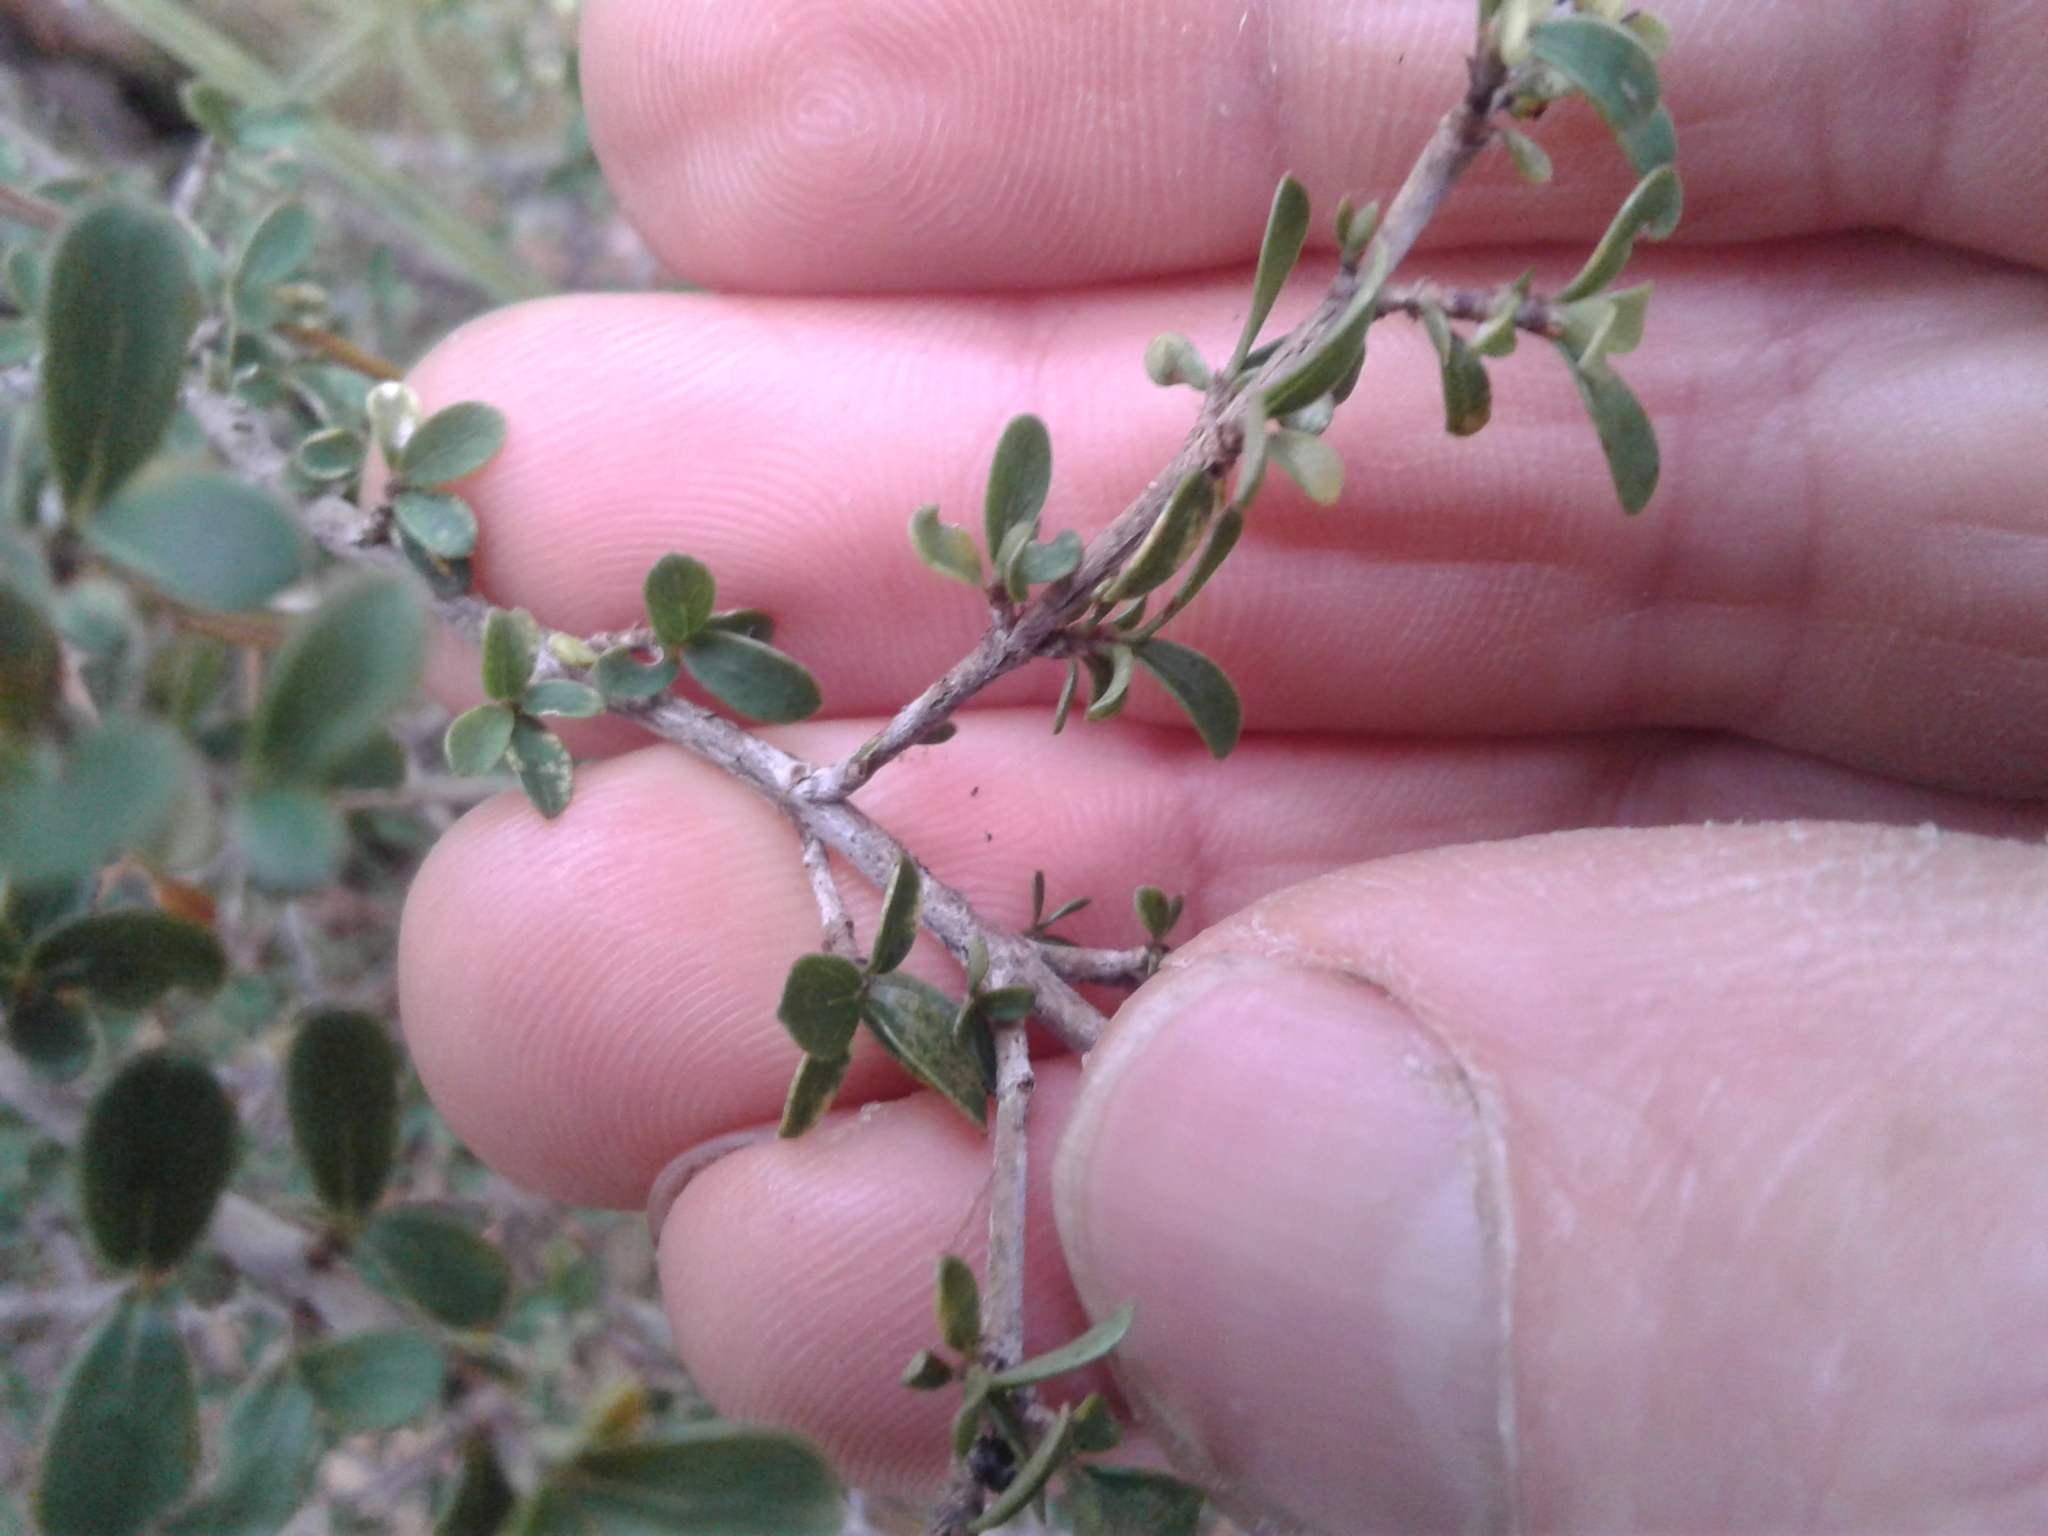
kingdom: Plantae
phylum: Tracheophyta
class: Magnoliopsida
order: Gentianales
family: Rubiaceae
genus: Coprosma
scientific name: Coprosma dumosa
